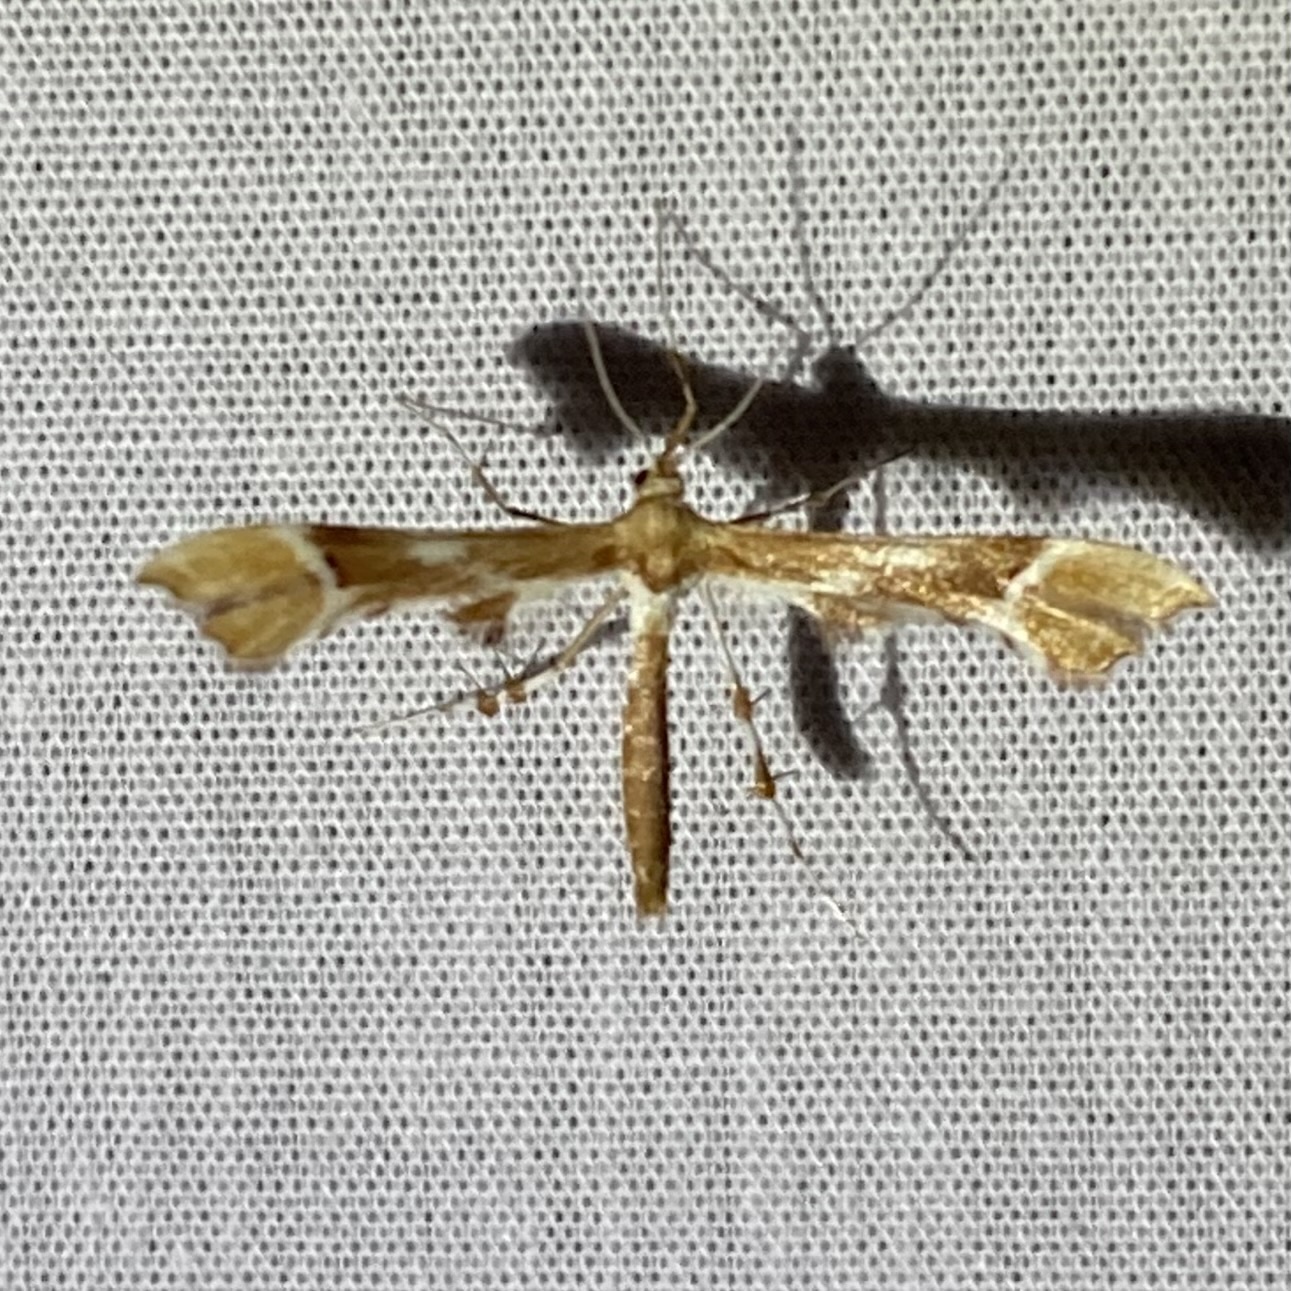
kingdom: Animalia
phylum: Arthropoda
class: Insecta
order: Lepidoptera
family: Pterophoridae
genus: Cnaemidophorus
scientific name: Cnaemidophorus rhododactyla
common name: Rose plume
